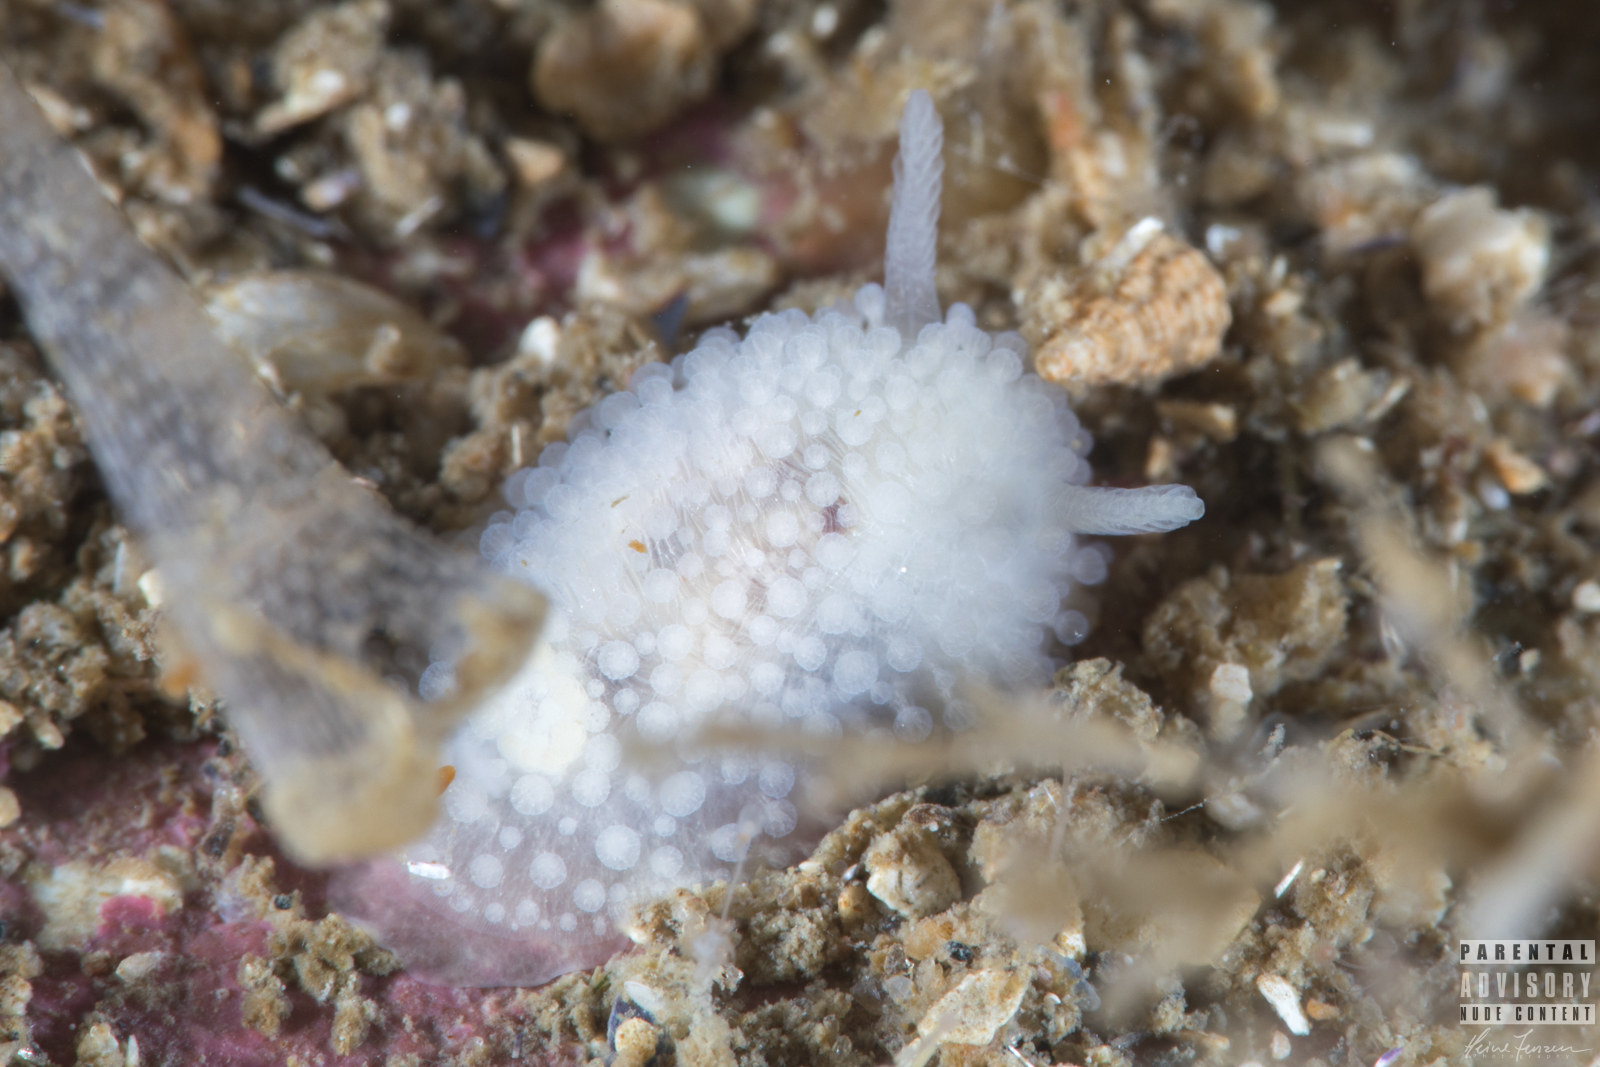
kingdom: Animalia
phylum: Mollusca
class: Gastropoda
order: Nudibranchia
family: Onchidorididae
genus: Onchidoris
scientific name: Onchidoris muricata
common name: Rough doris
